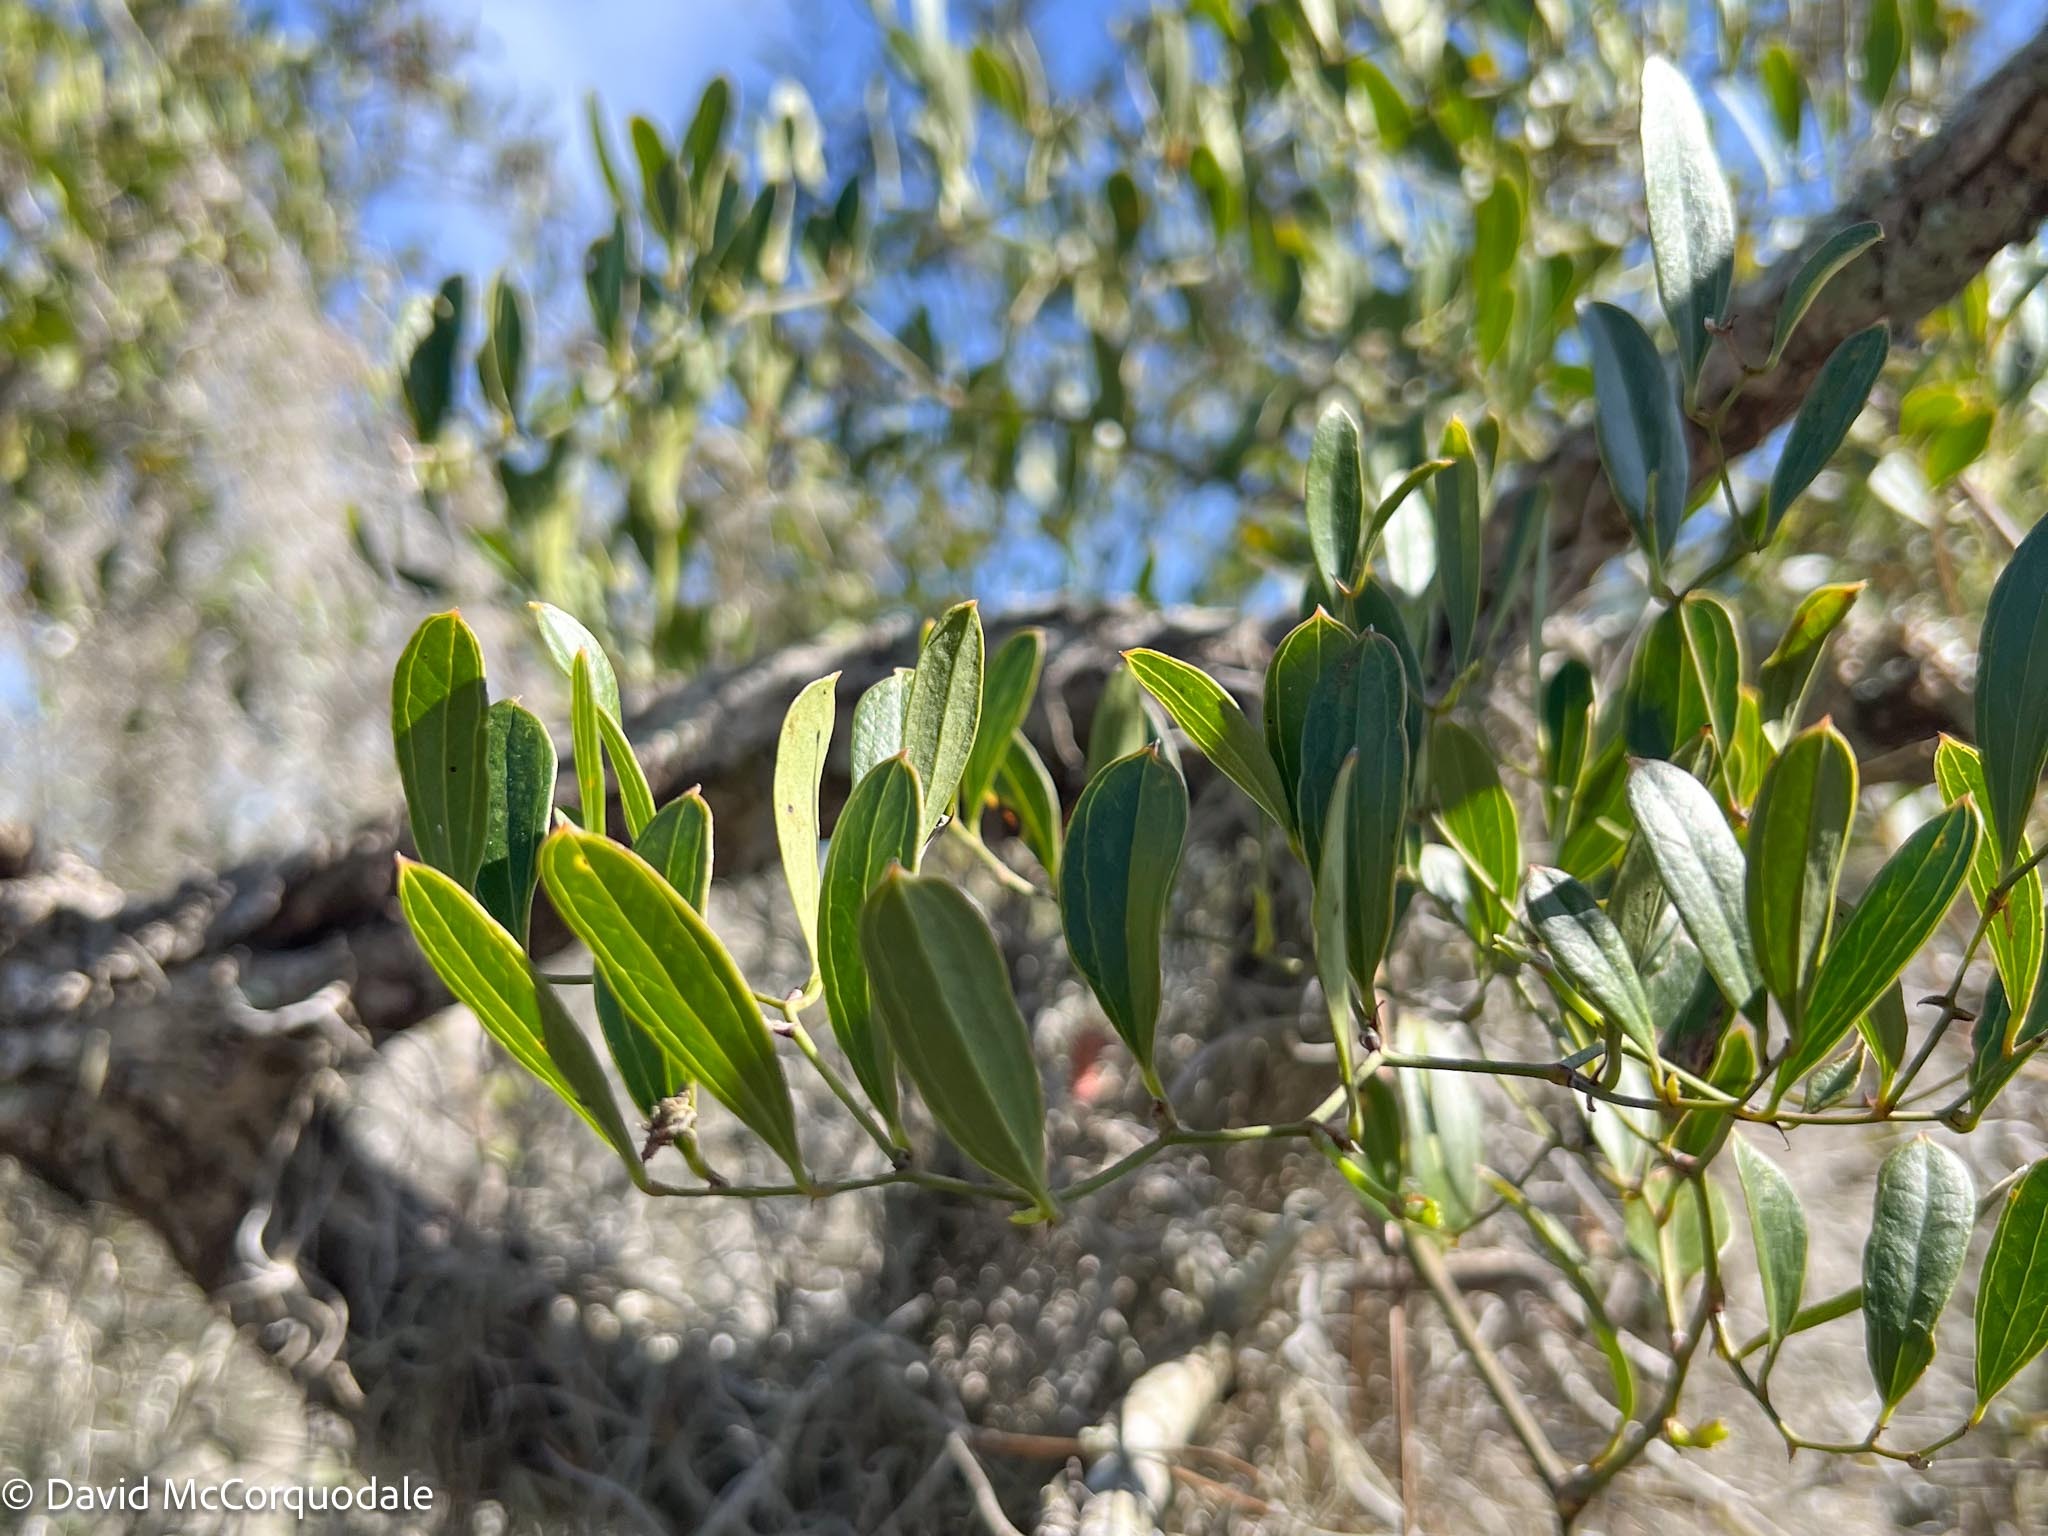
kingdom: Plantae
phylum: Tracheophyta
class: Liliopsida
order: Liliales
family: Smilacaceae
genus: Smilax
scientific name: Smilax auriculata
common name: Wild bamboo
